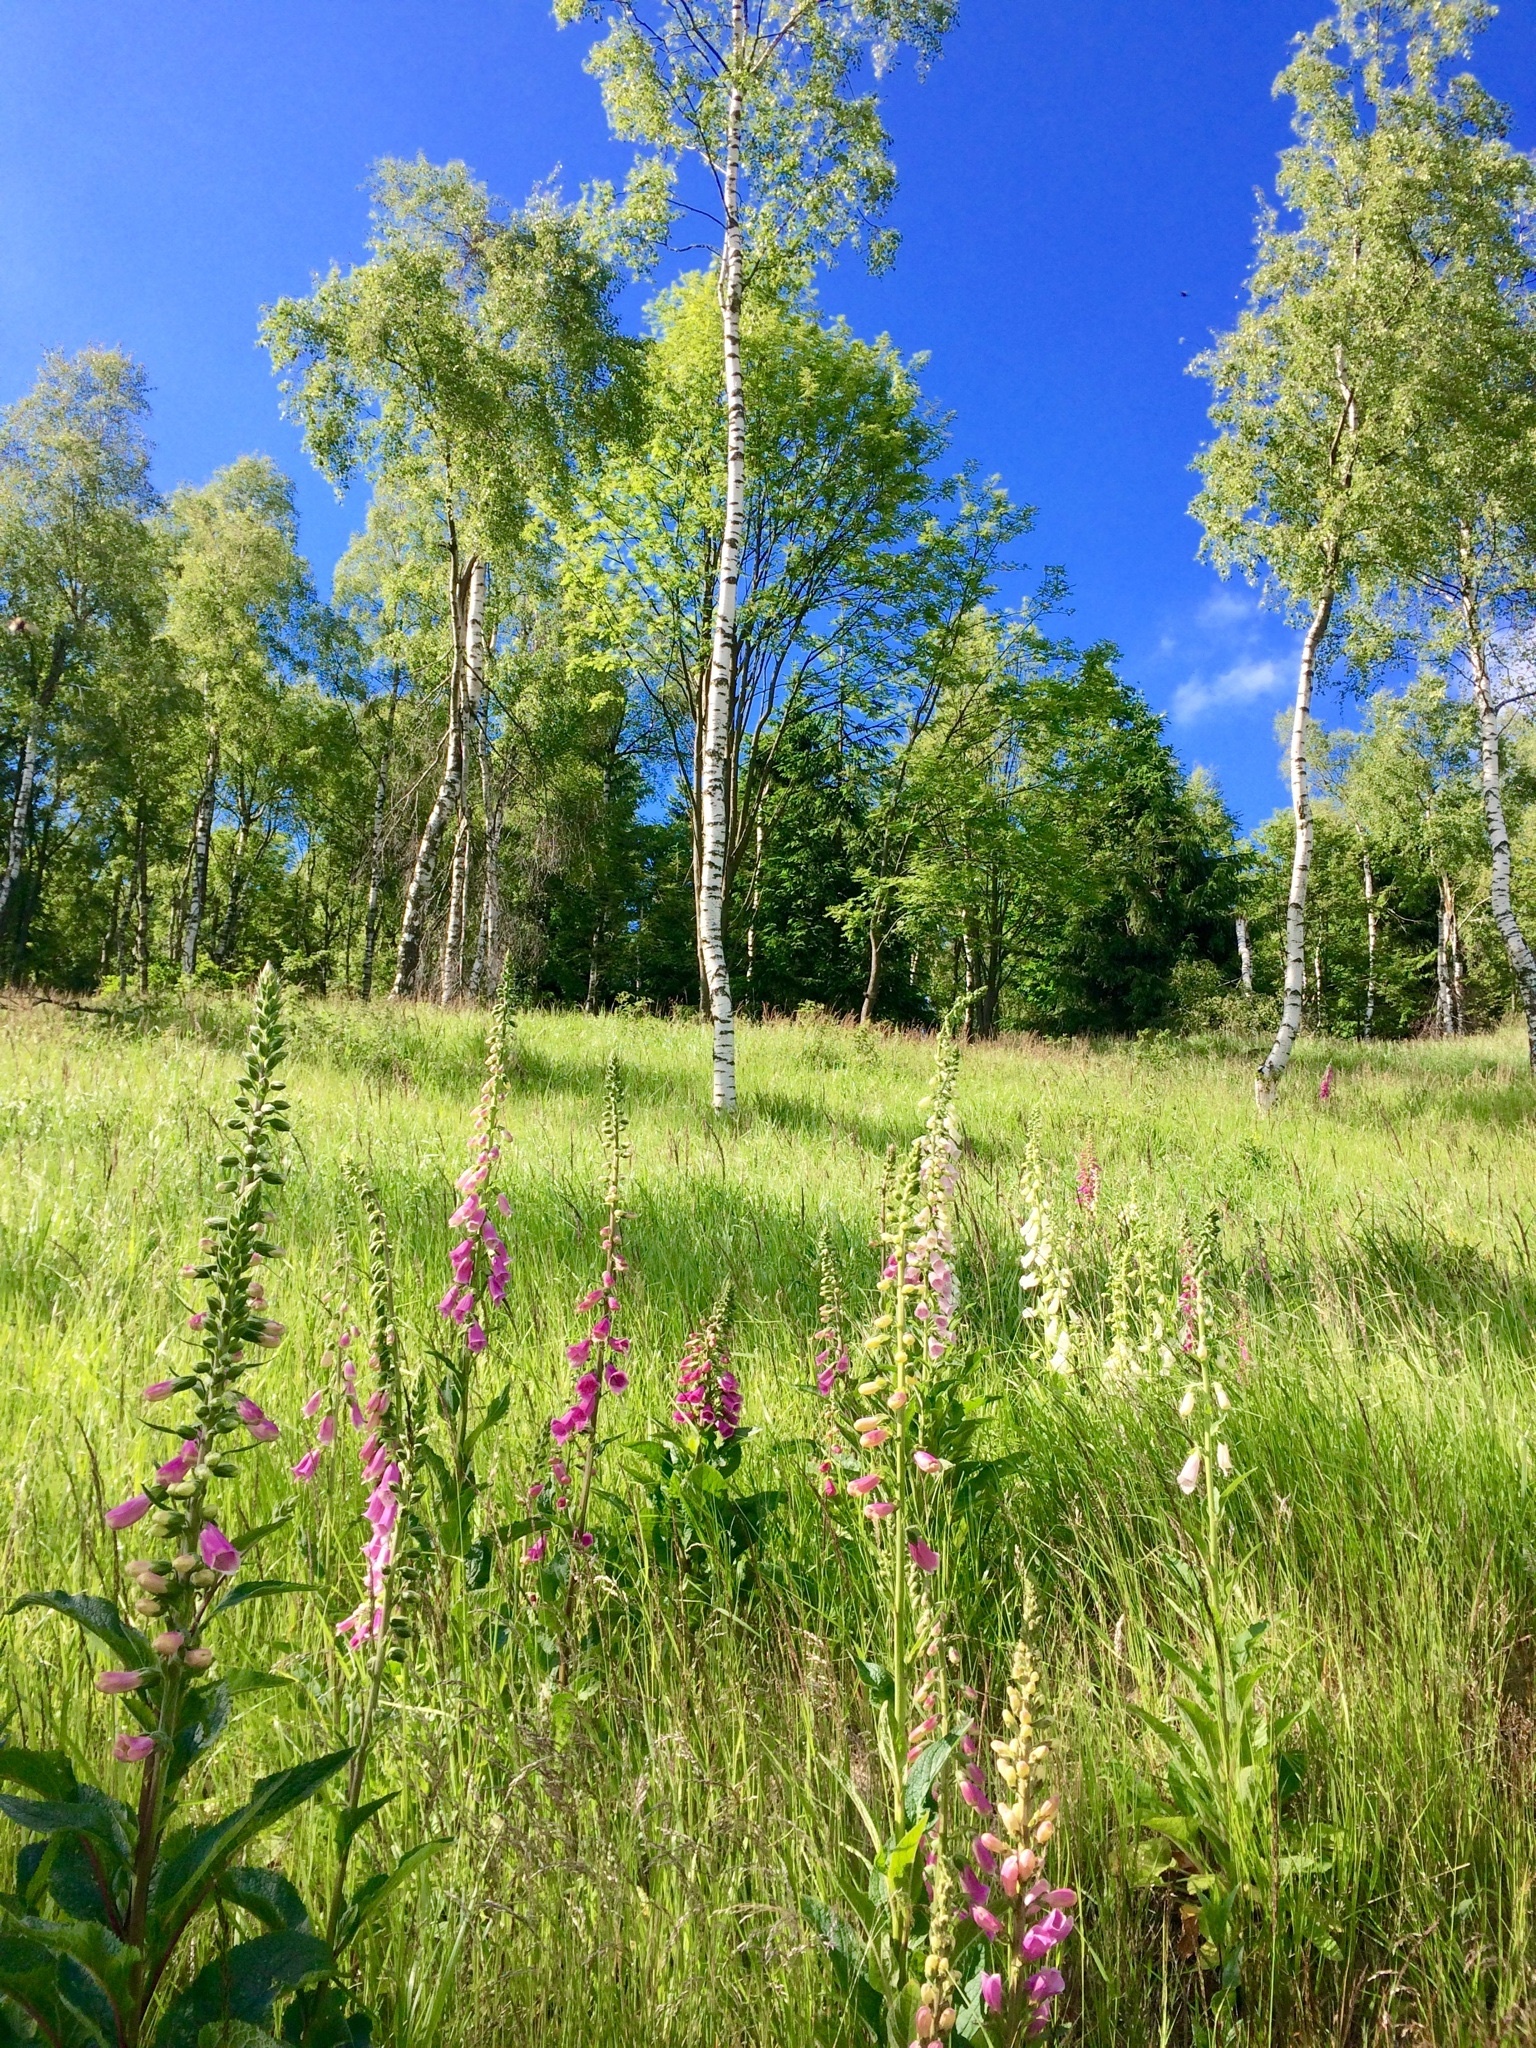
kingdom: Plantae
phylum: Tracheophyta
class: Magnoliopsida
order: Lamiales
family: Plantaginaceae
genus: Digitalis
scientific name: Digitalis purpurea
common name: Foxglove
